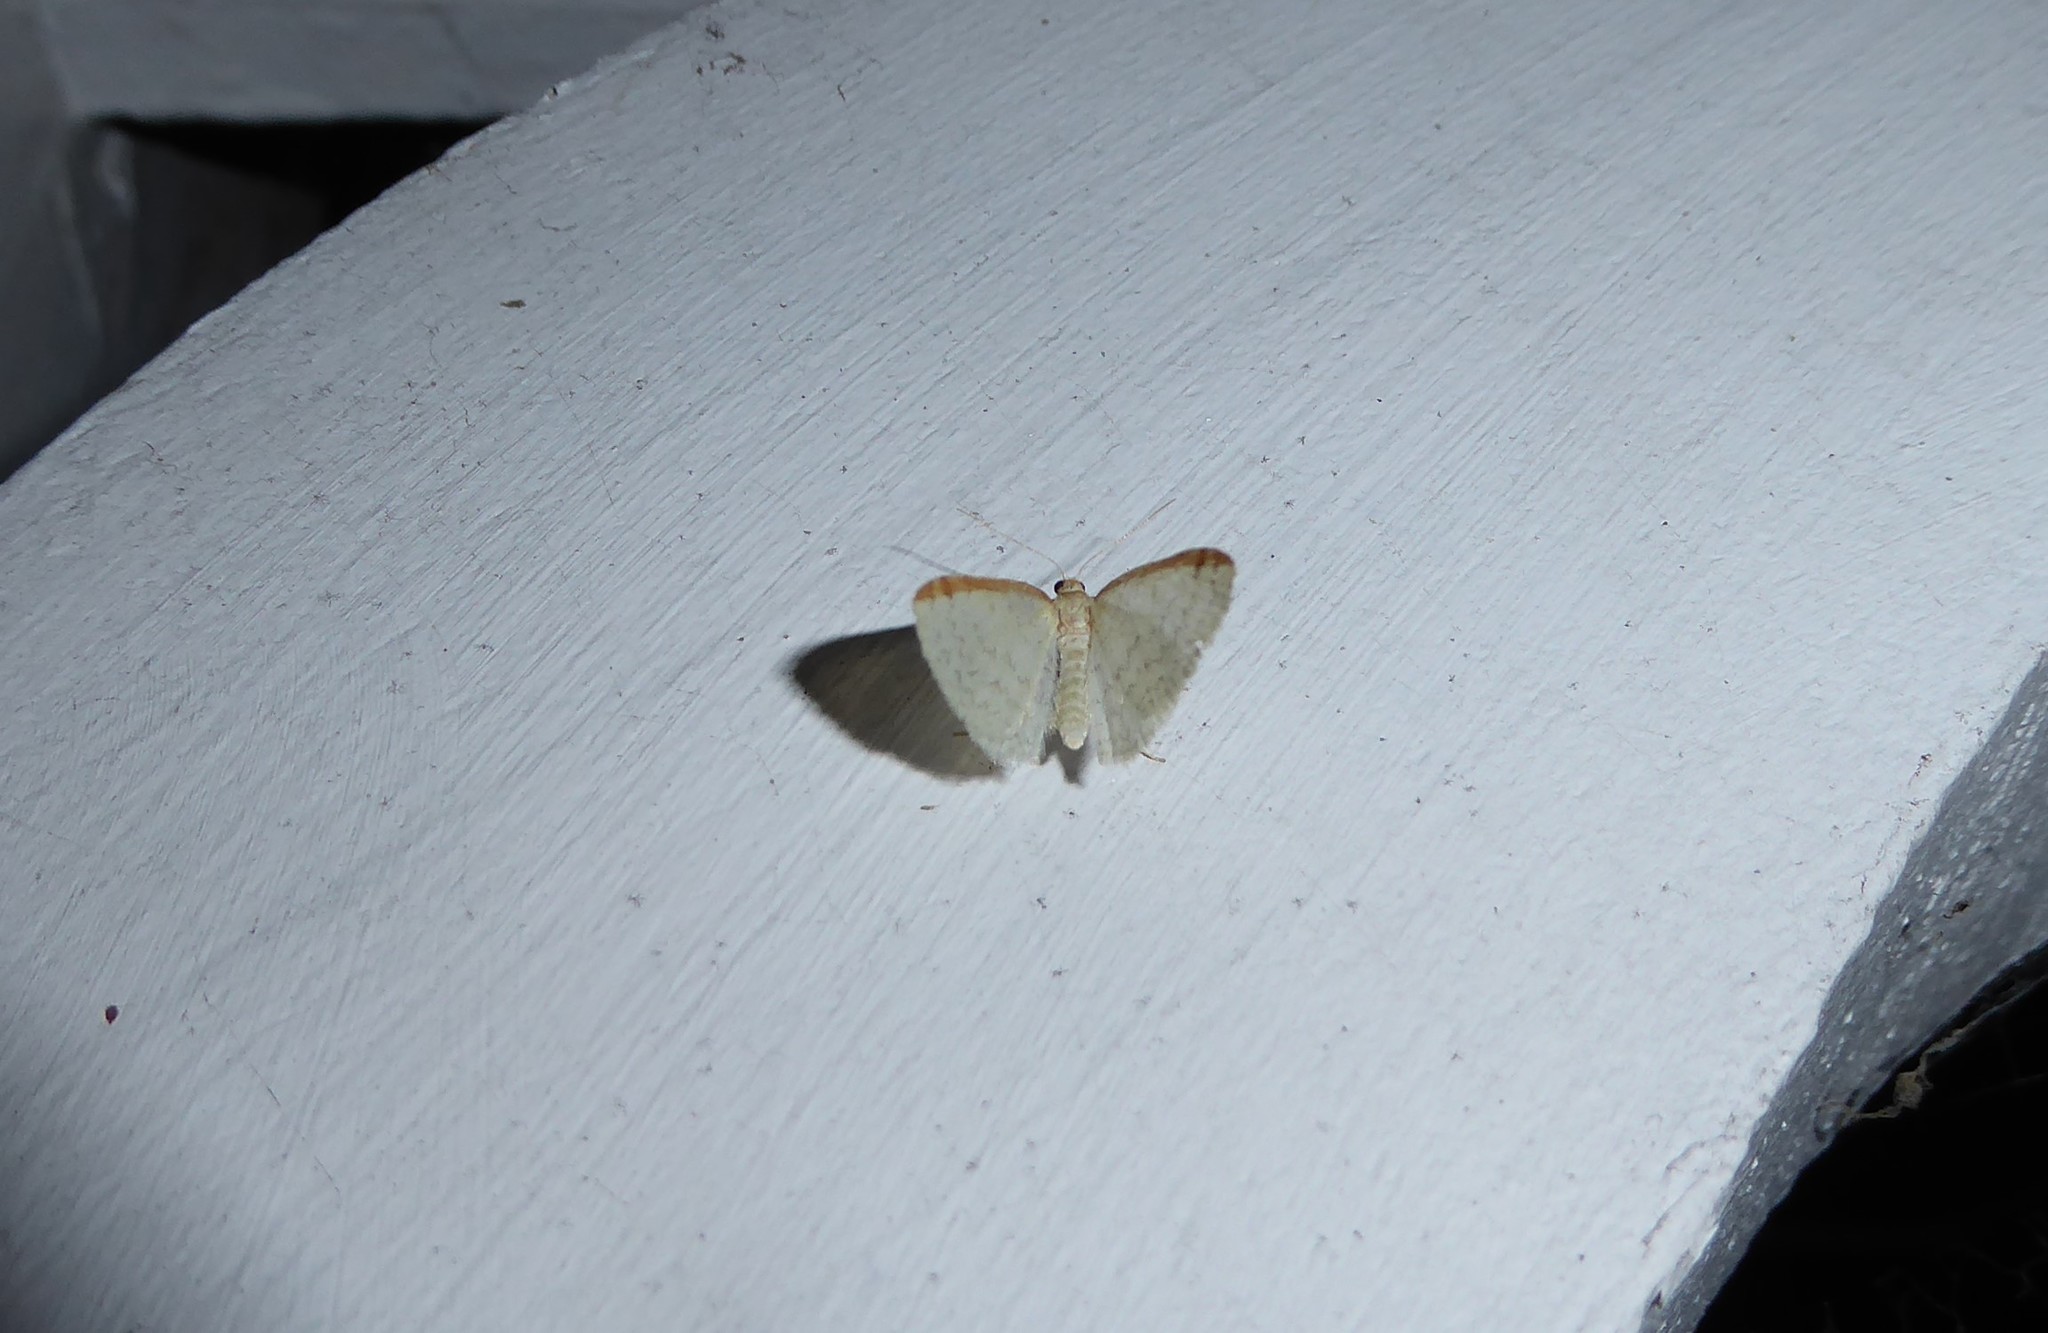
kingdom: Animalia
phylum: Arthropoda
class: Insecta
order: Lepidoptera
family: Geometridae
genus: Epiphryne
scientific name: Epiphryne undosata
